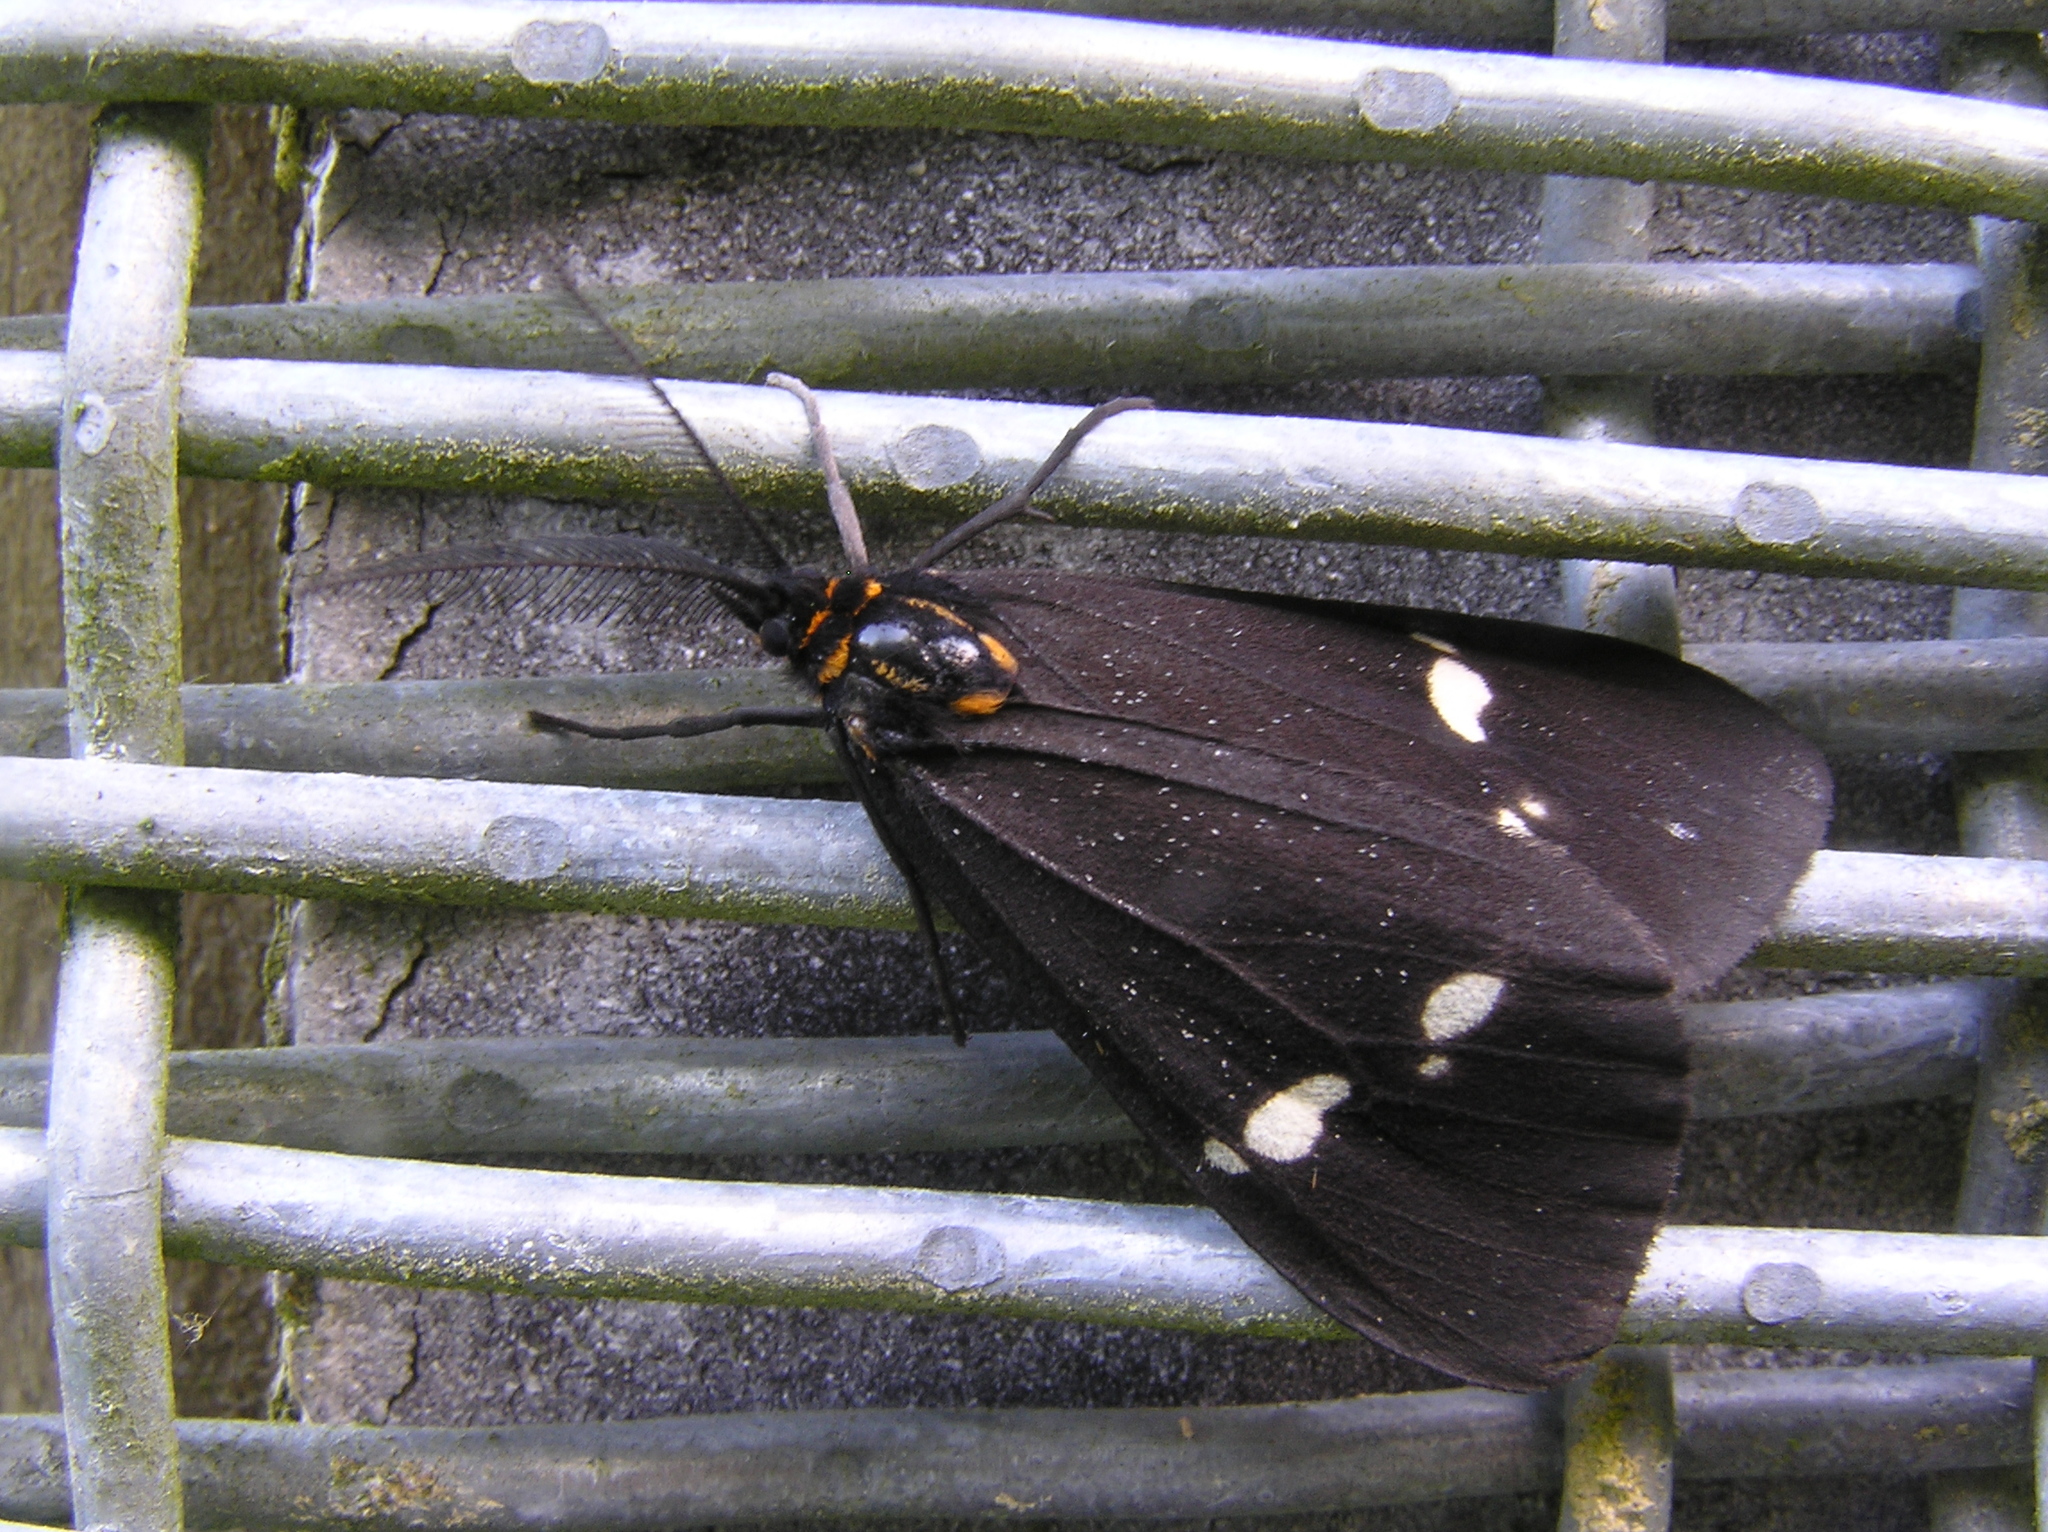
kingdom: Animalia
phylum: Arthropoda
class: Insecta
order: Lepidoptera
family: Erebidae
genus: Nyctemera
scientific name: Nyctemera annulatum
